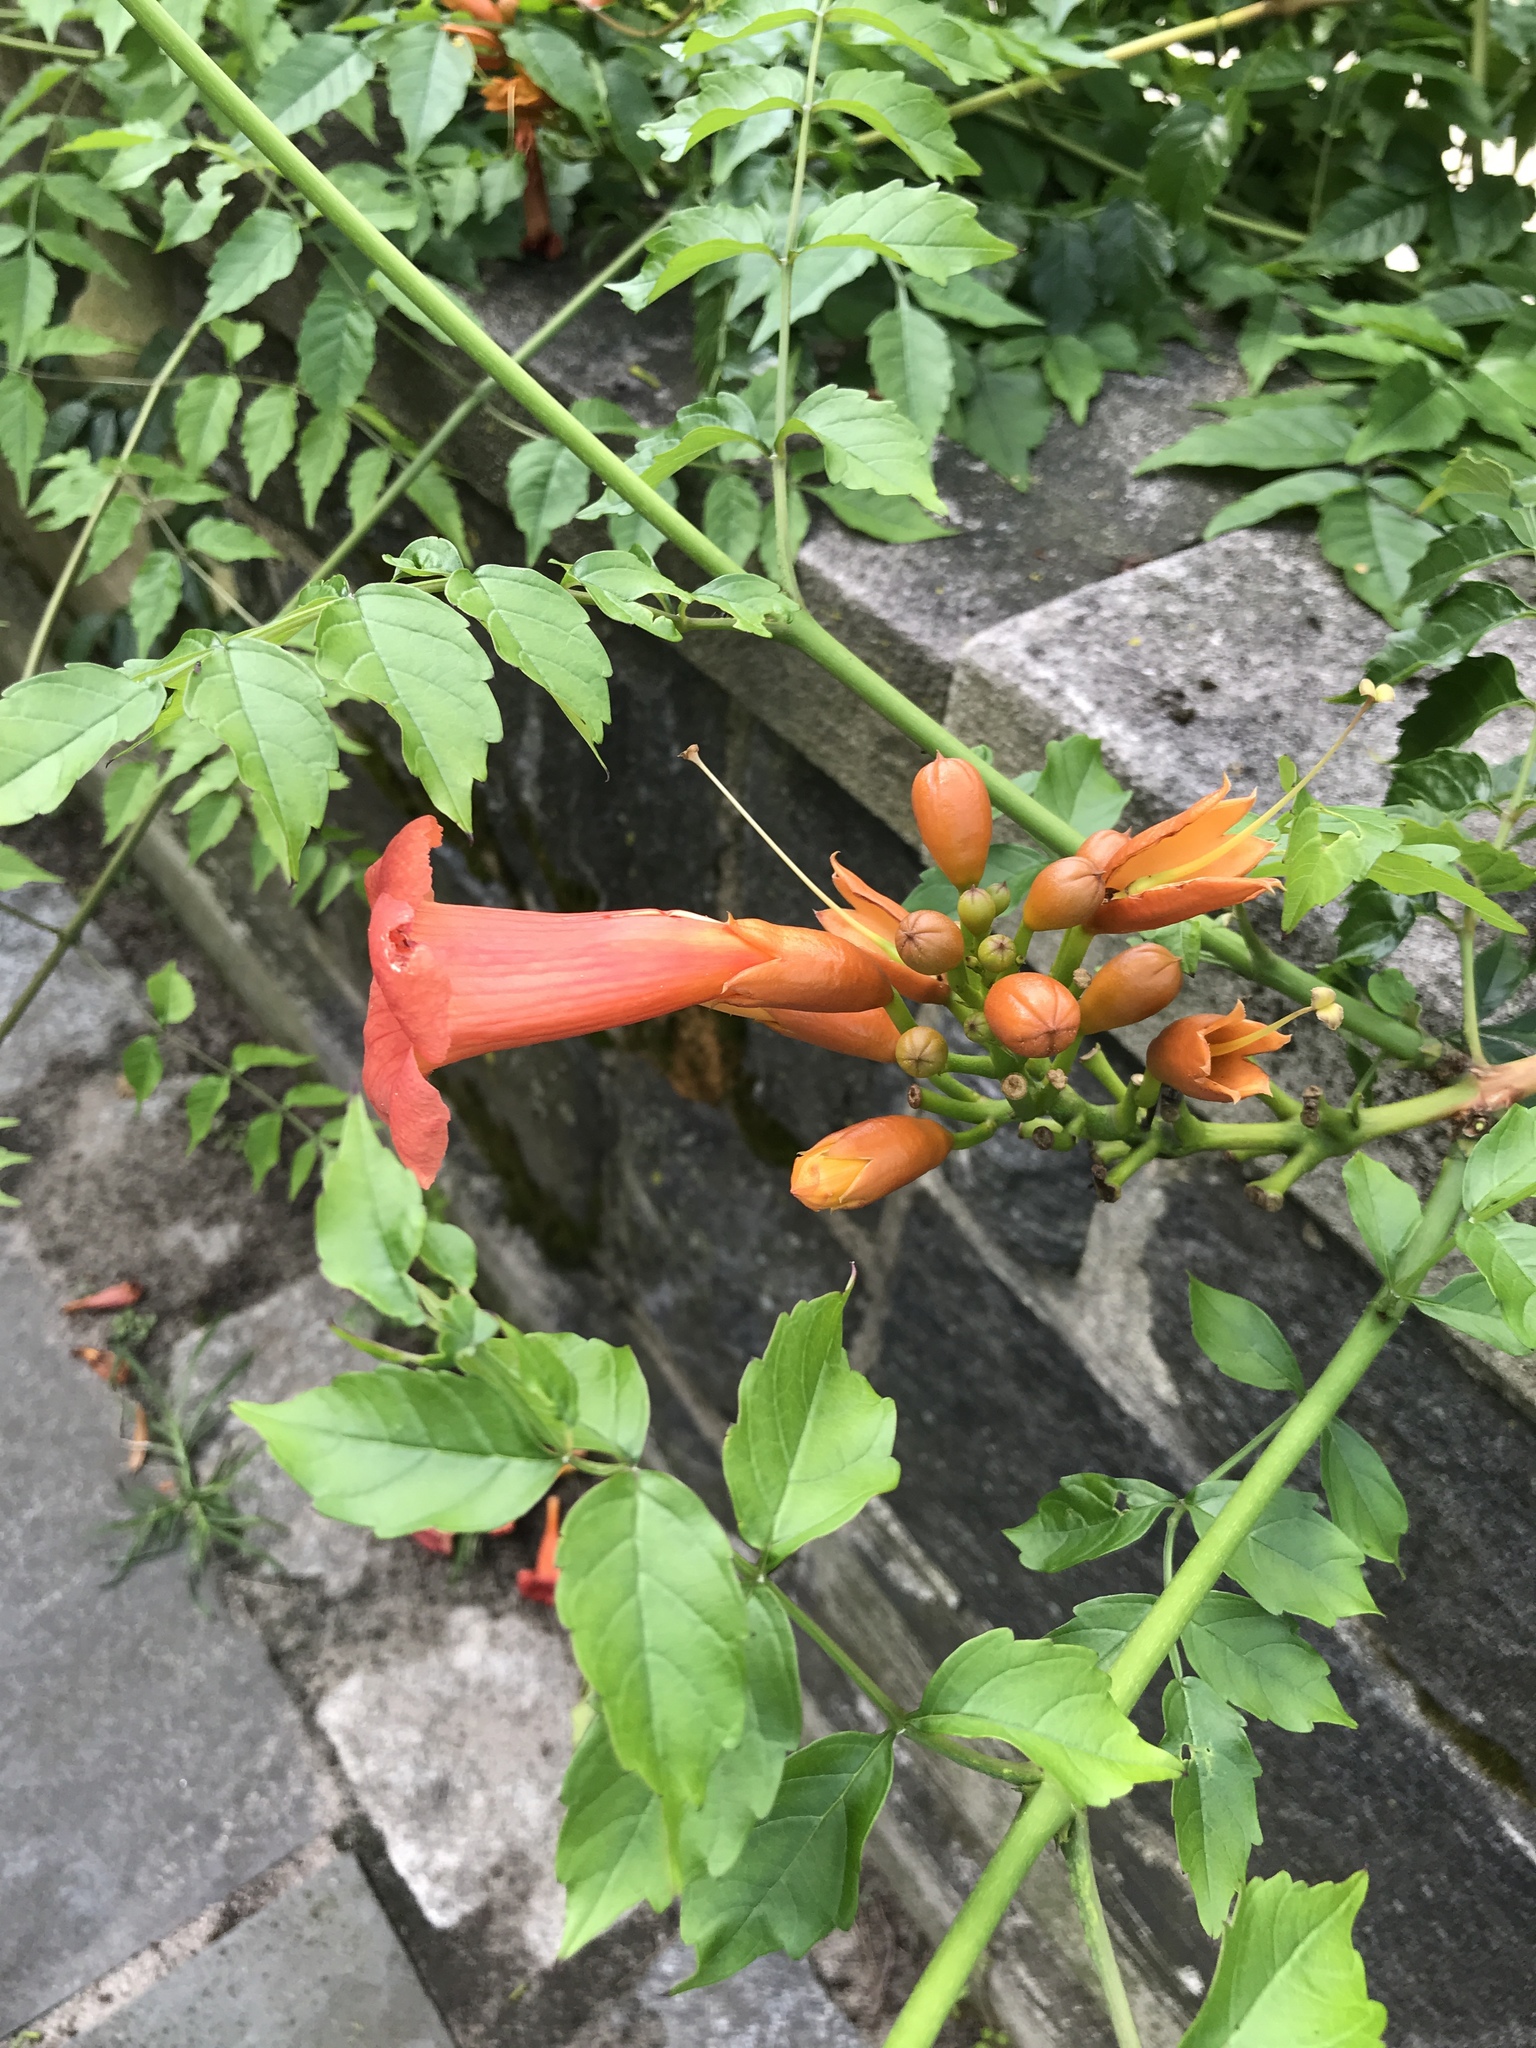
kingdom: Plantae
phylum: Tracheophyta
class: Magnoliopsida
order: Lamiales
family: Bignoniaceae
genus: Campsis
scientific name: Campsis radicans
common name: Trumpet-creeper
